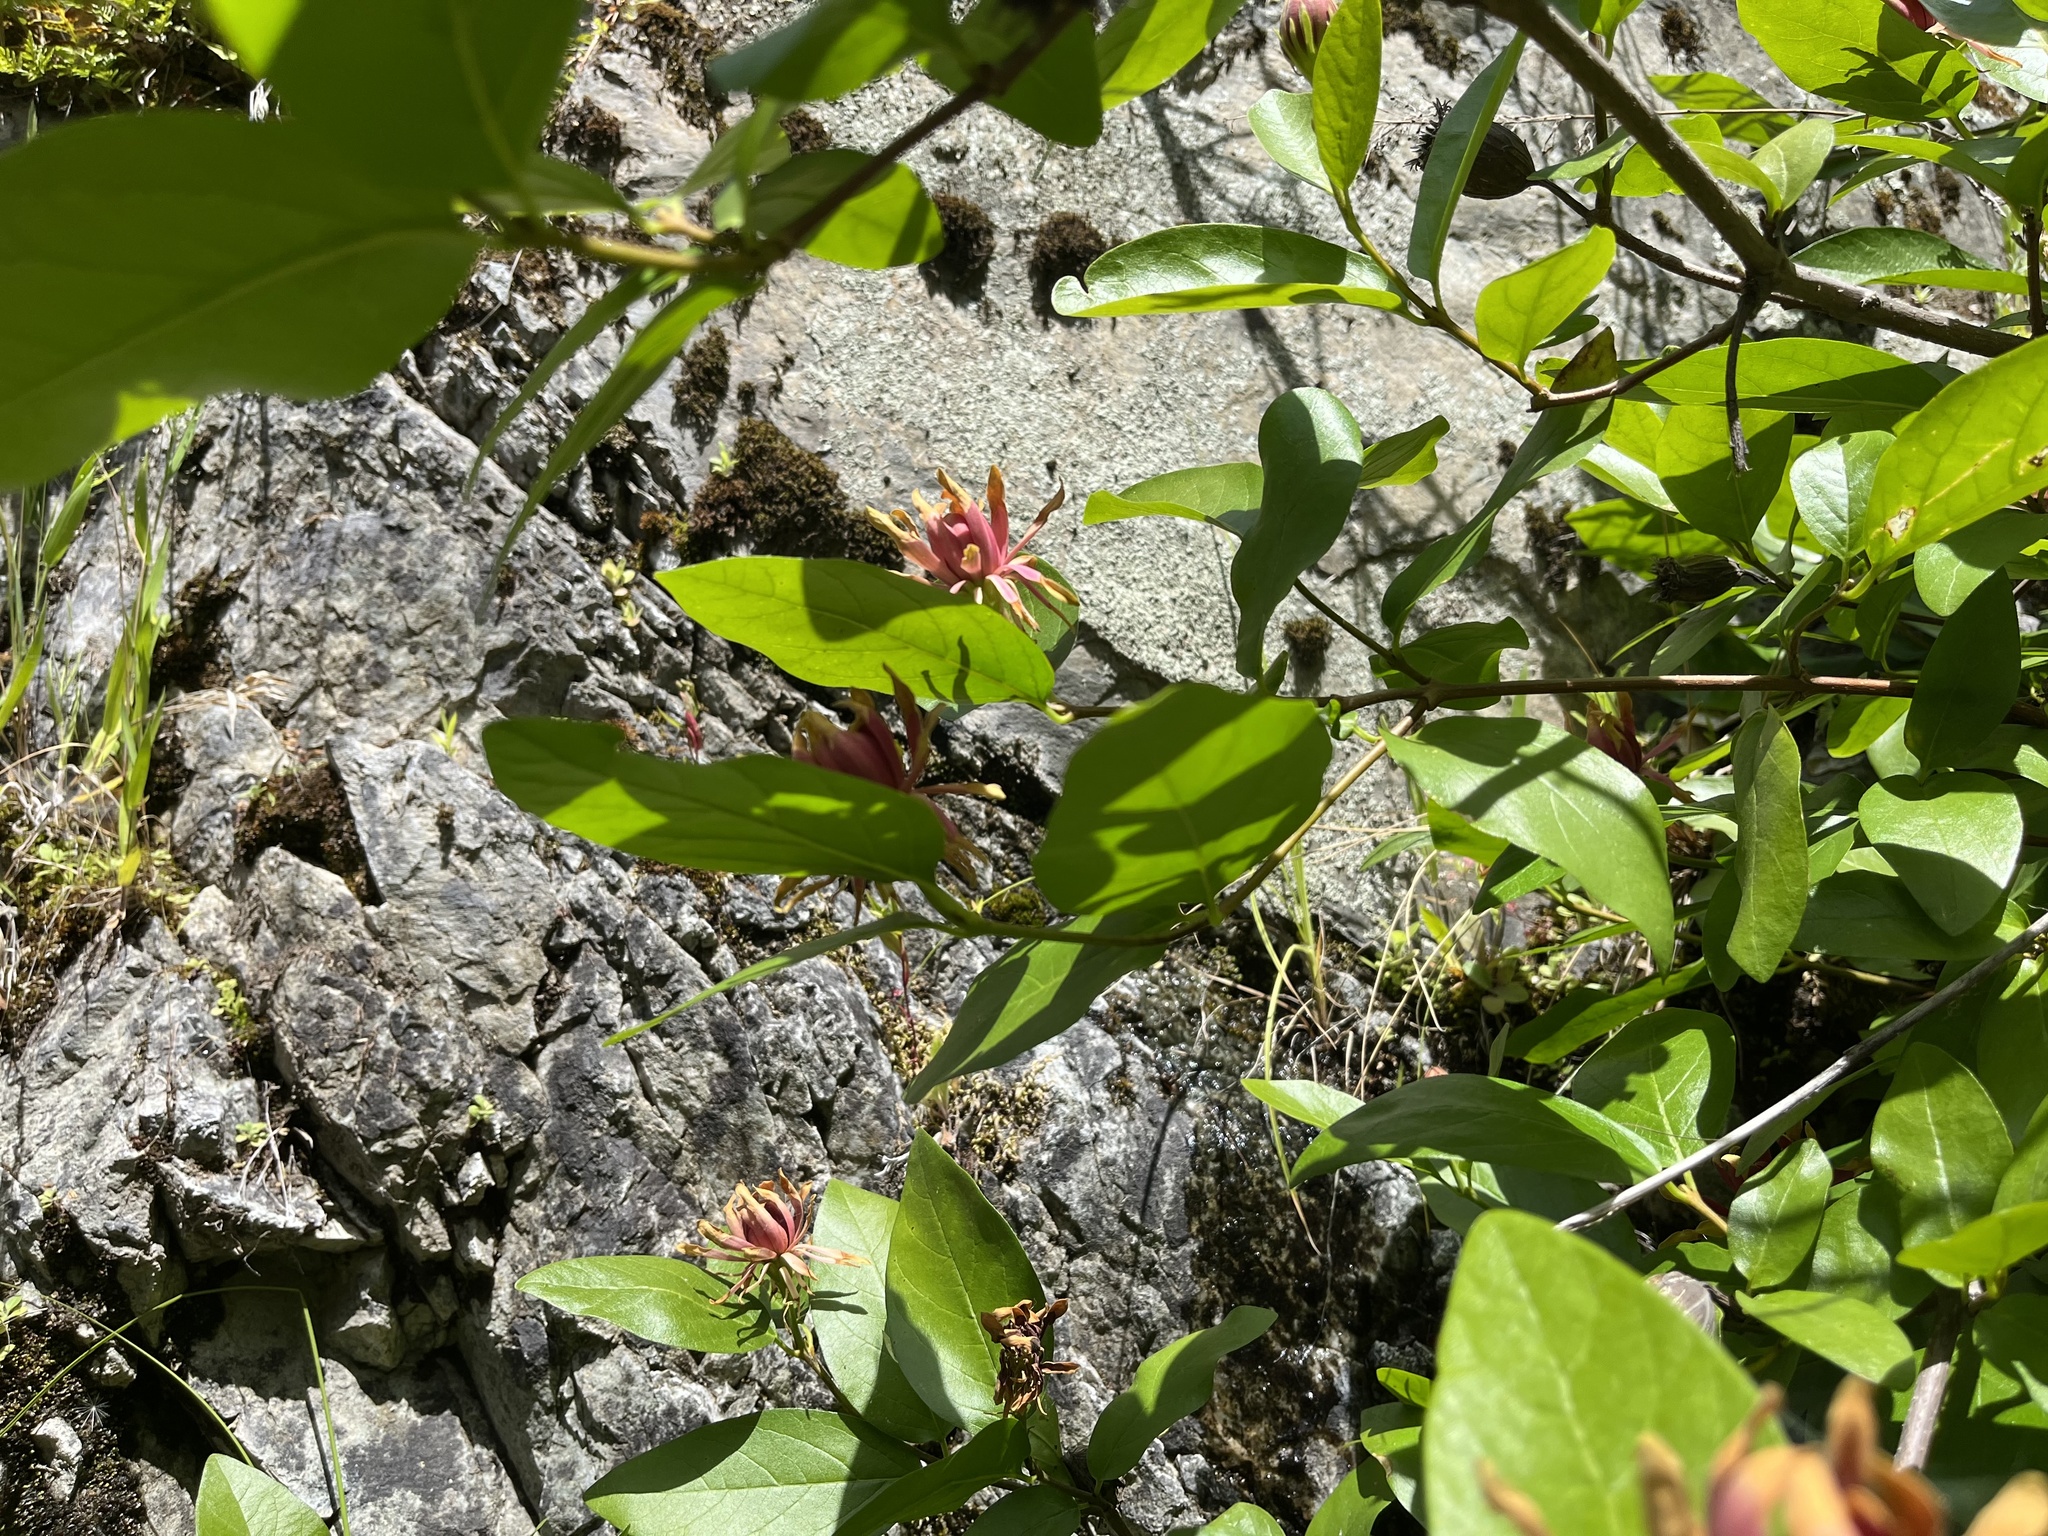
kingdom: Plantae
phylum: Tracheophyta
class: Magnoliopsida
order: Laurales
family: Calycanthaceae
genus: Calycanthus
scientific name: Calycanthus occidentalis
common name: California spicebush
